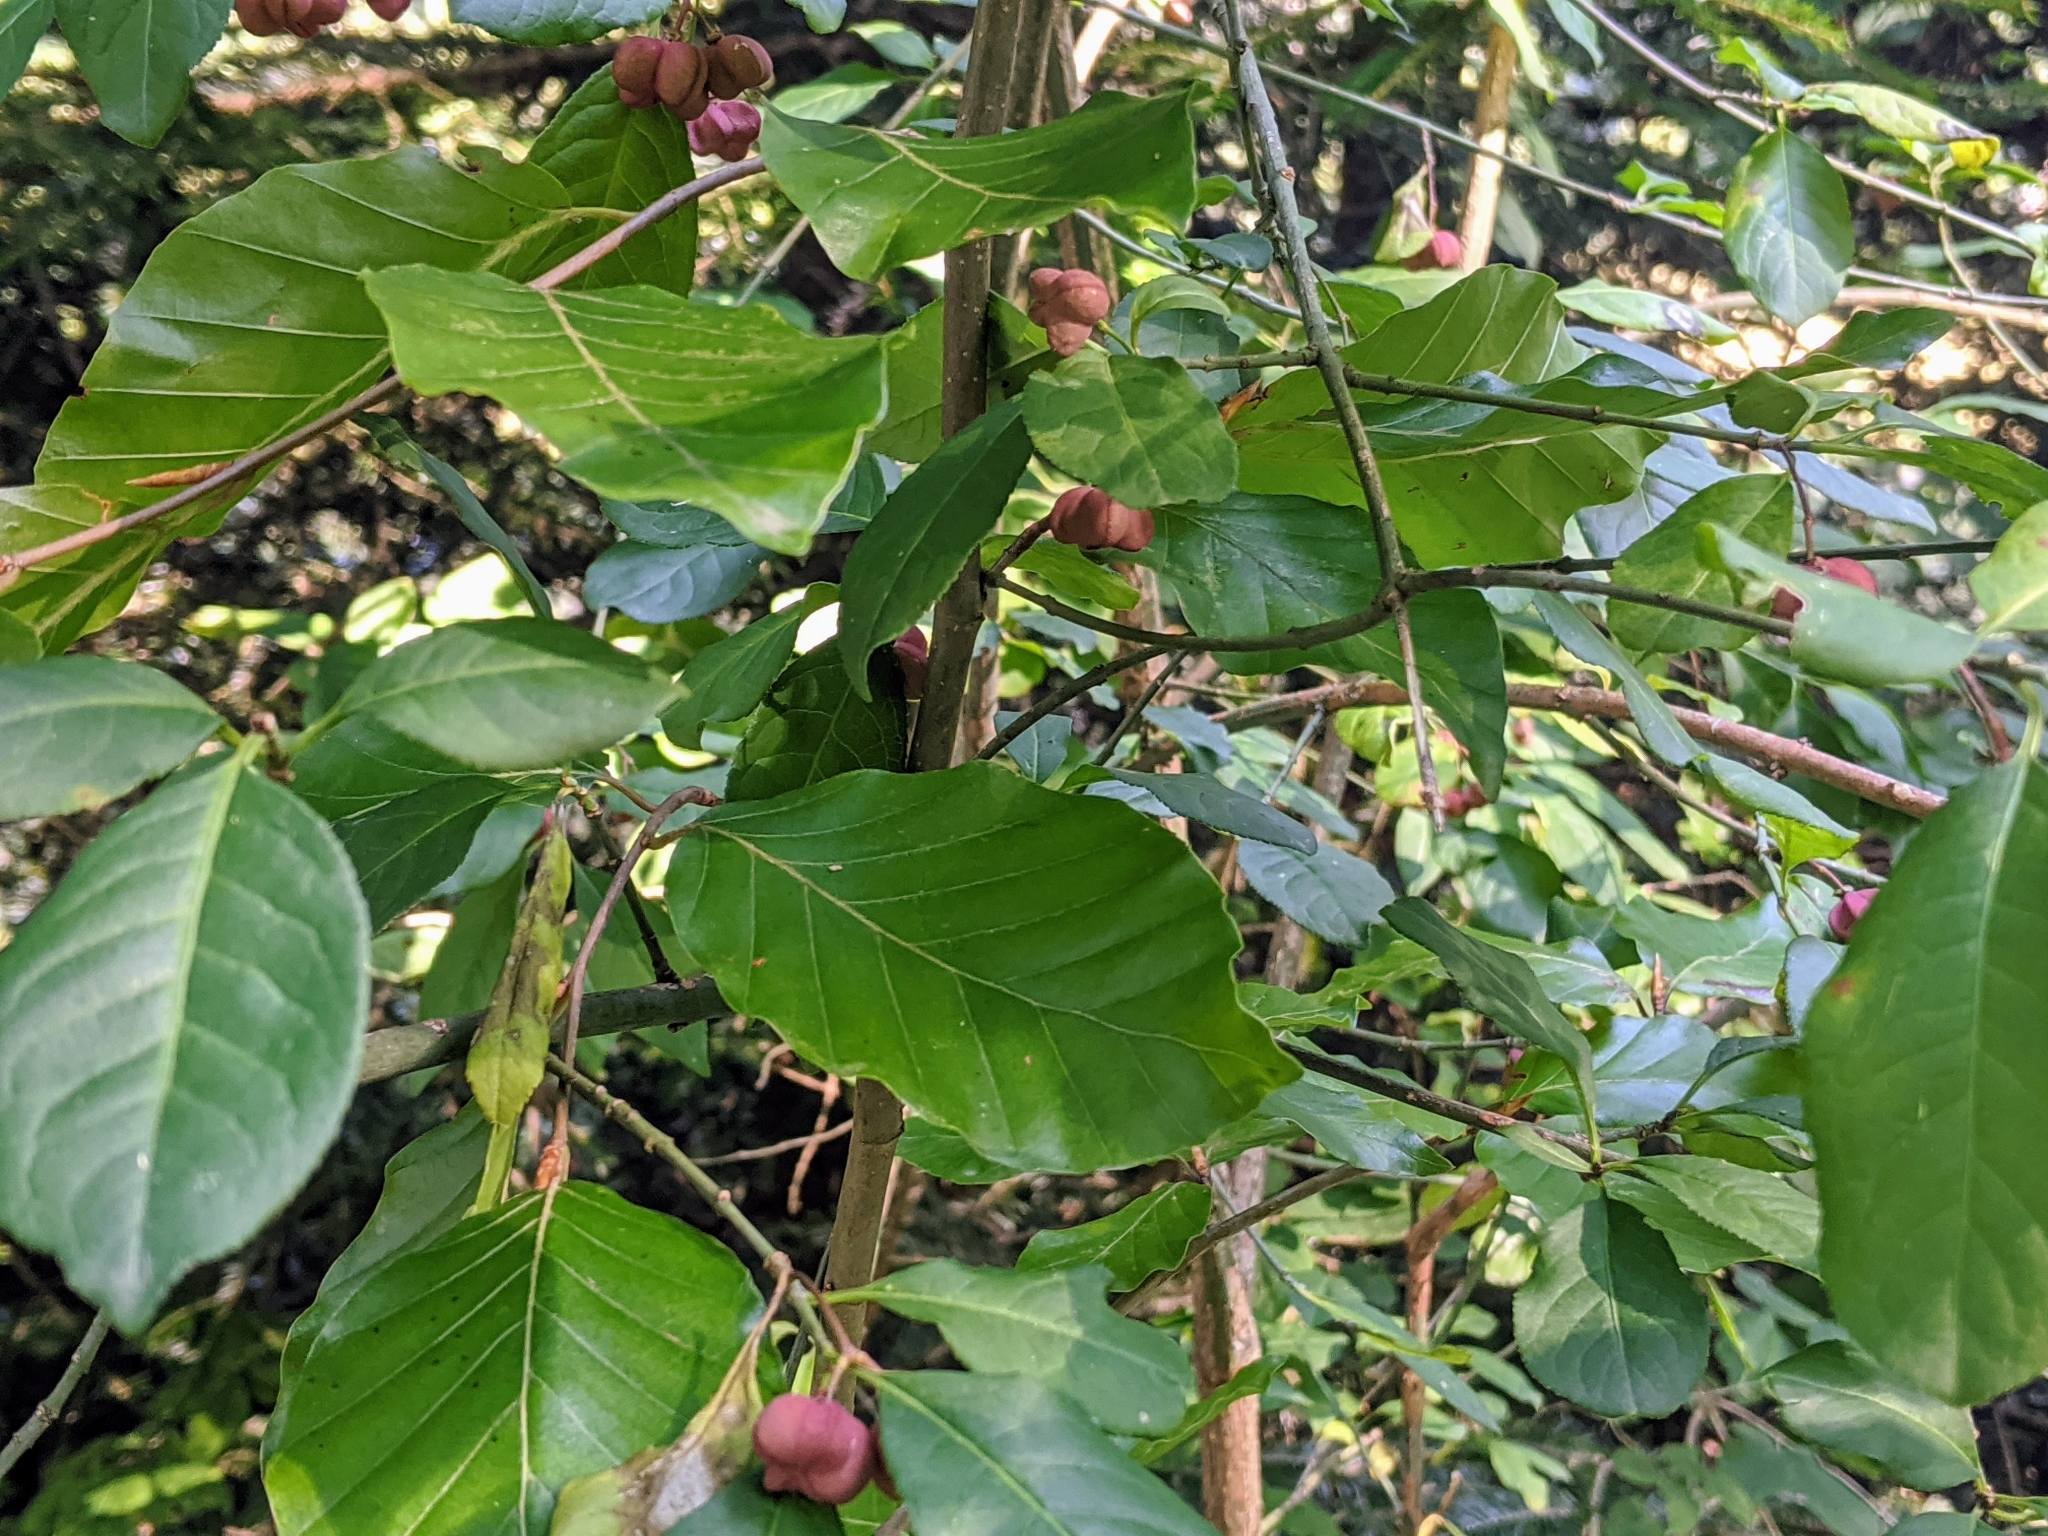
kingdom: Plantae
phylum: Tracheophyta
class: Magnoliopsida
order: Celastrales
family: Celastraceae
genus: Euonymus
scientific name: Euonymus europaeus
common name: Spindle
